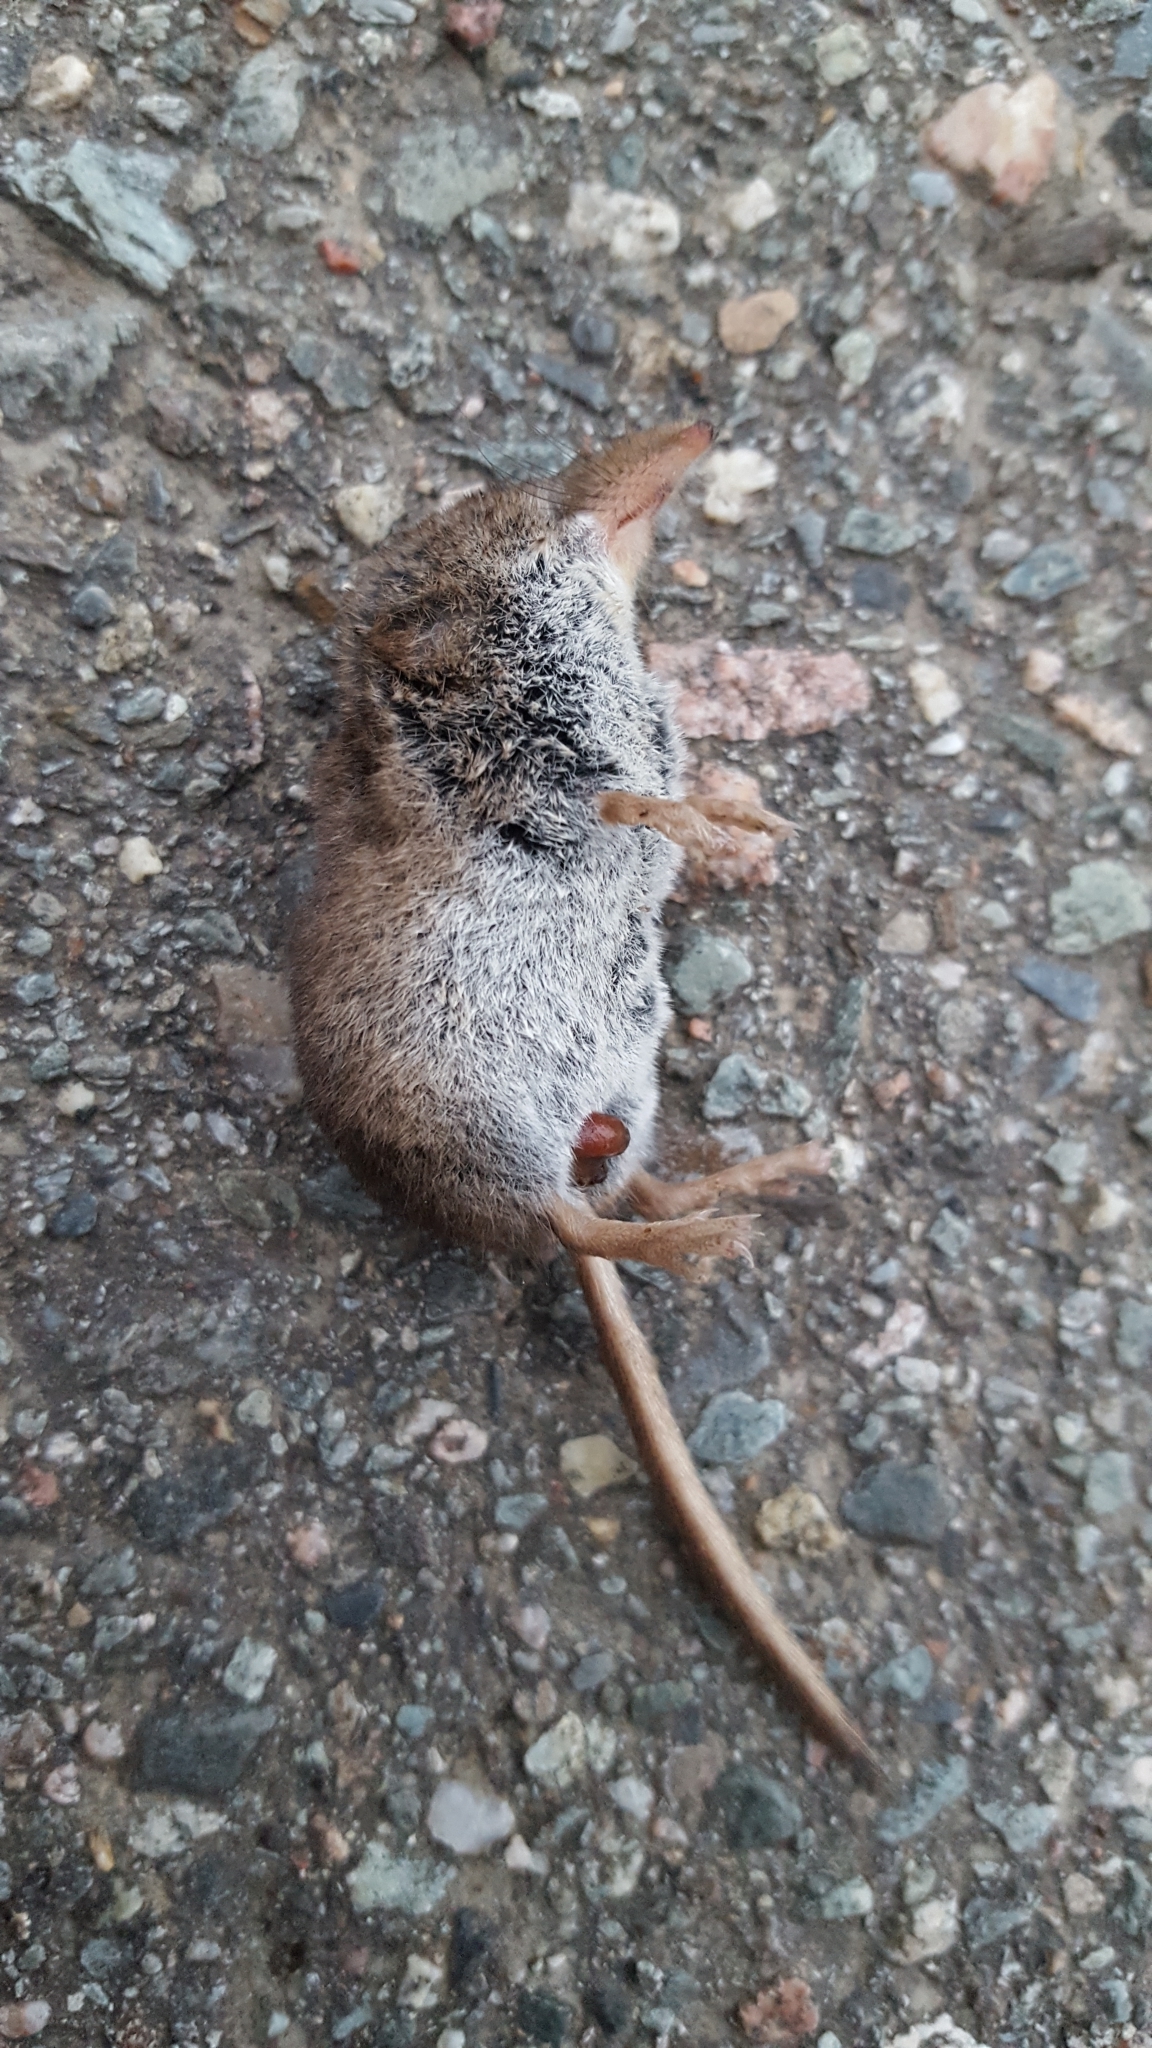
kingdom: Animalia
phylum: Chordata
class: Mammalia
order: Soricomorpha
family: Soricidae
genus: Sorex
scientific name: Sorex cinereus
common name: Cinereus shrew
